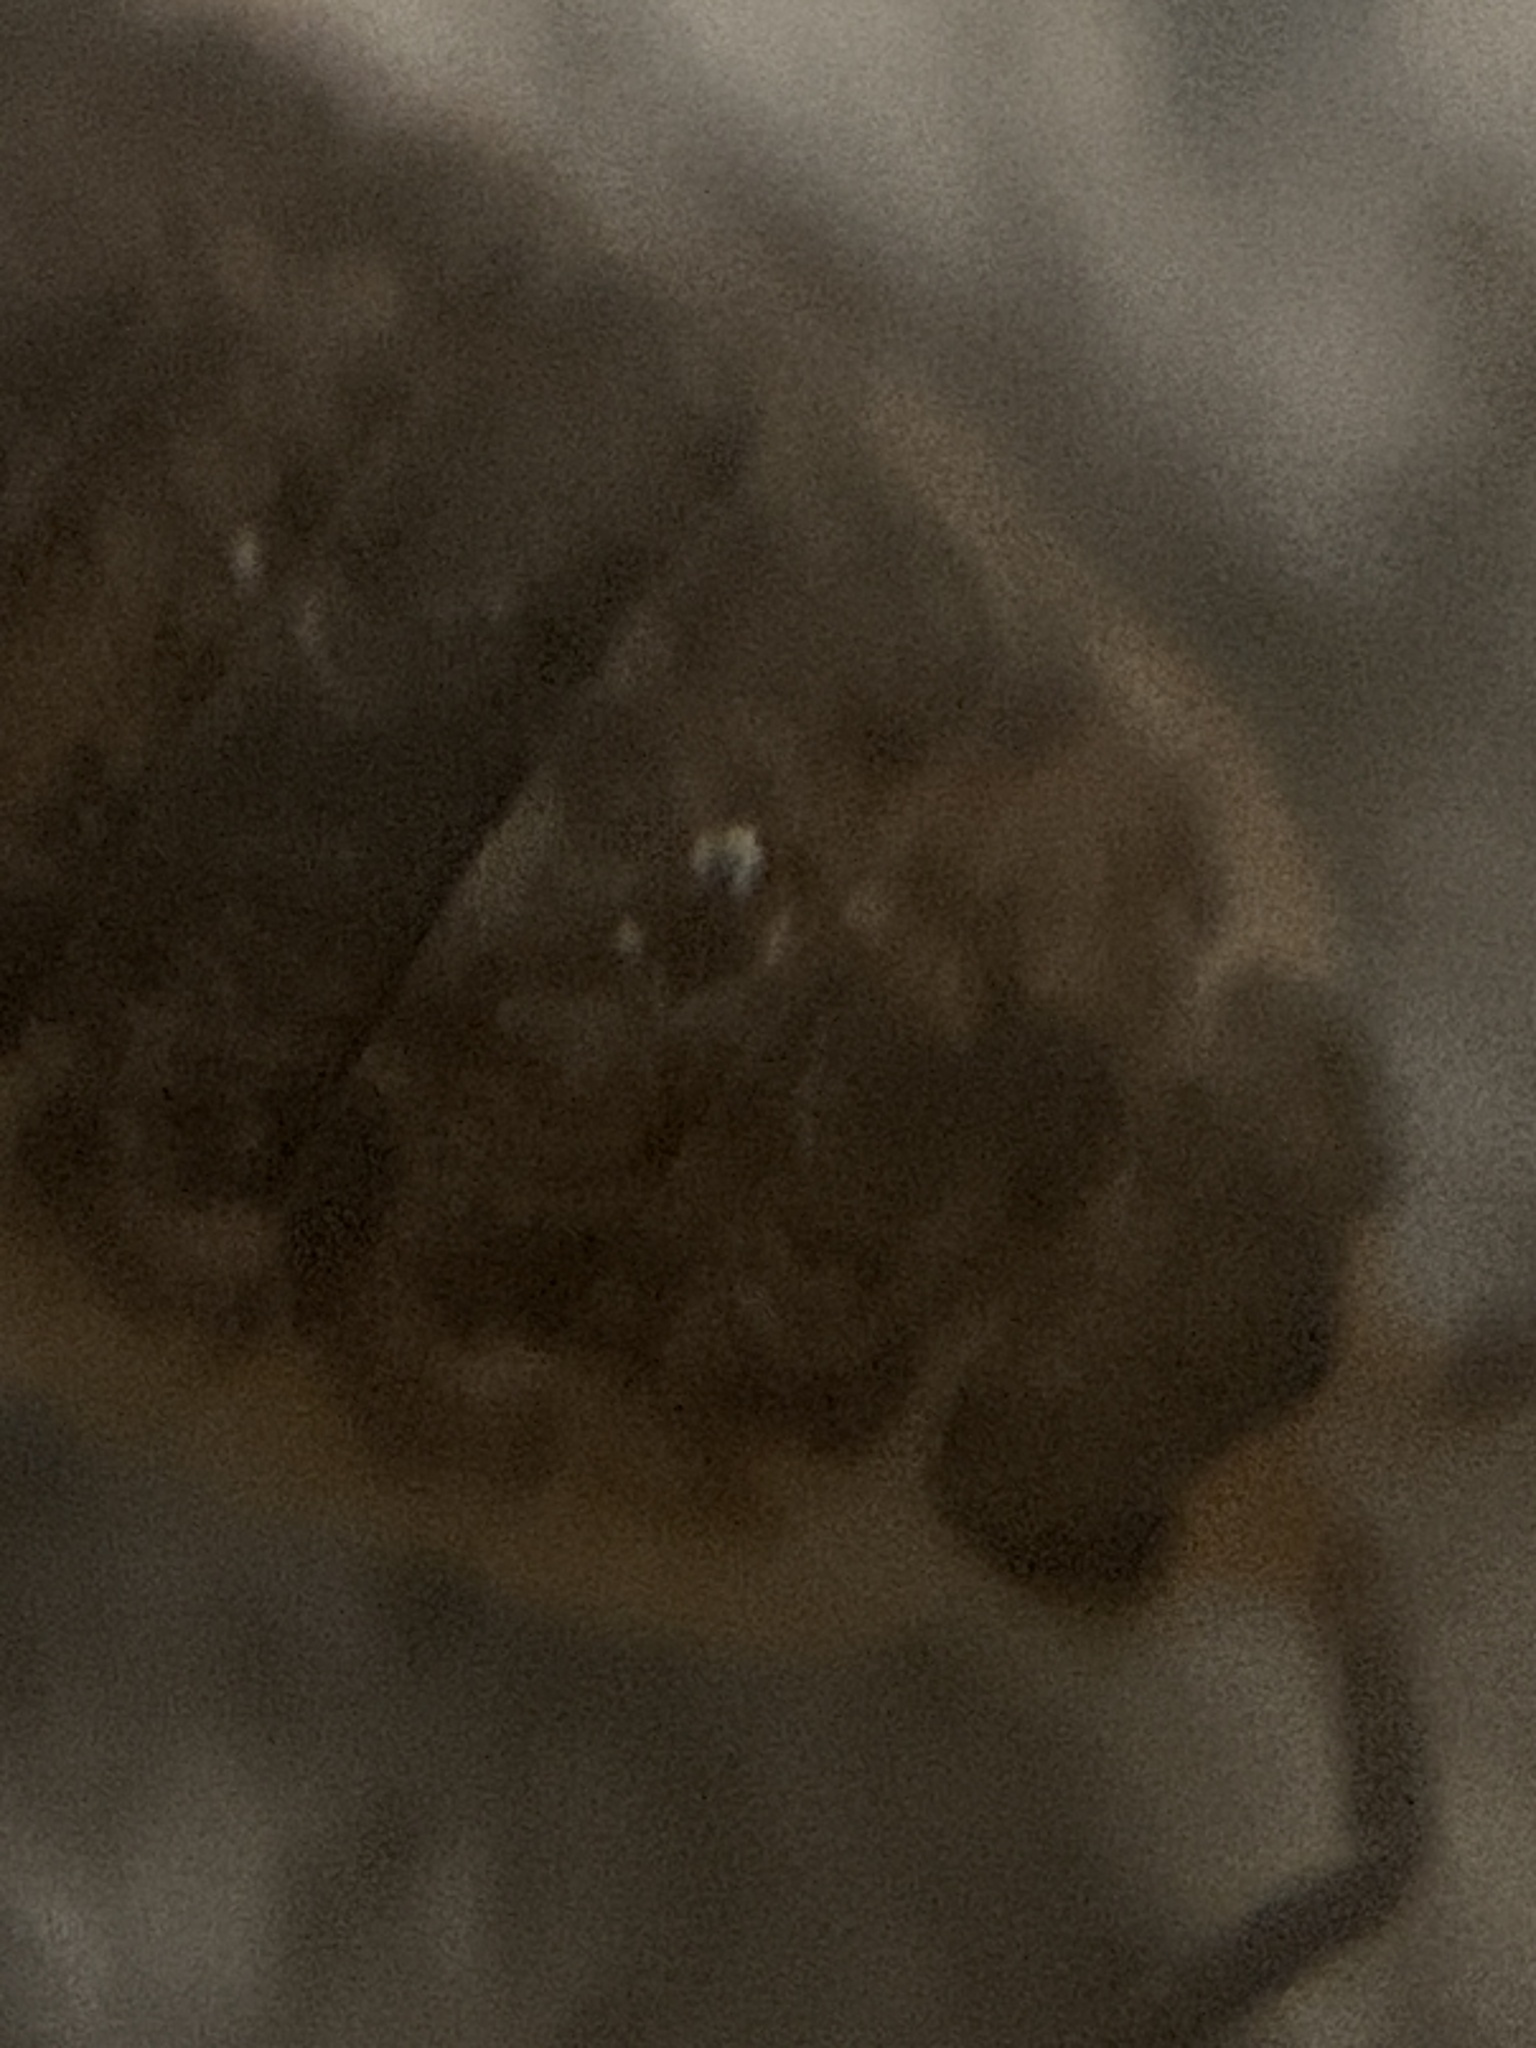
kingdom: Animalia
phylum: Arthropoda
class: Malacostraca
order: Isopoda
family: Porcellionidae
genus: Porcellio
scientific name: Porcellio scaber
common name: Common rough woodlouse
